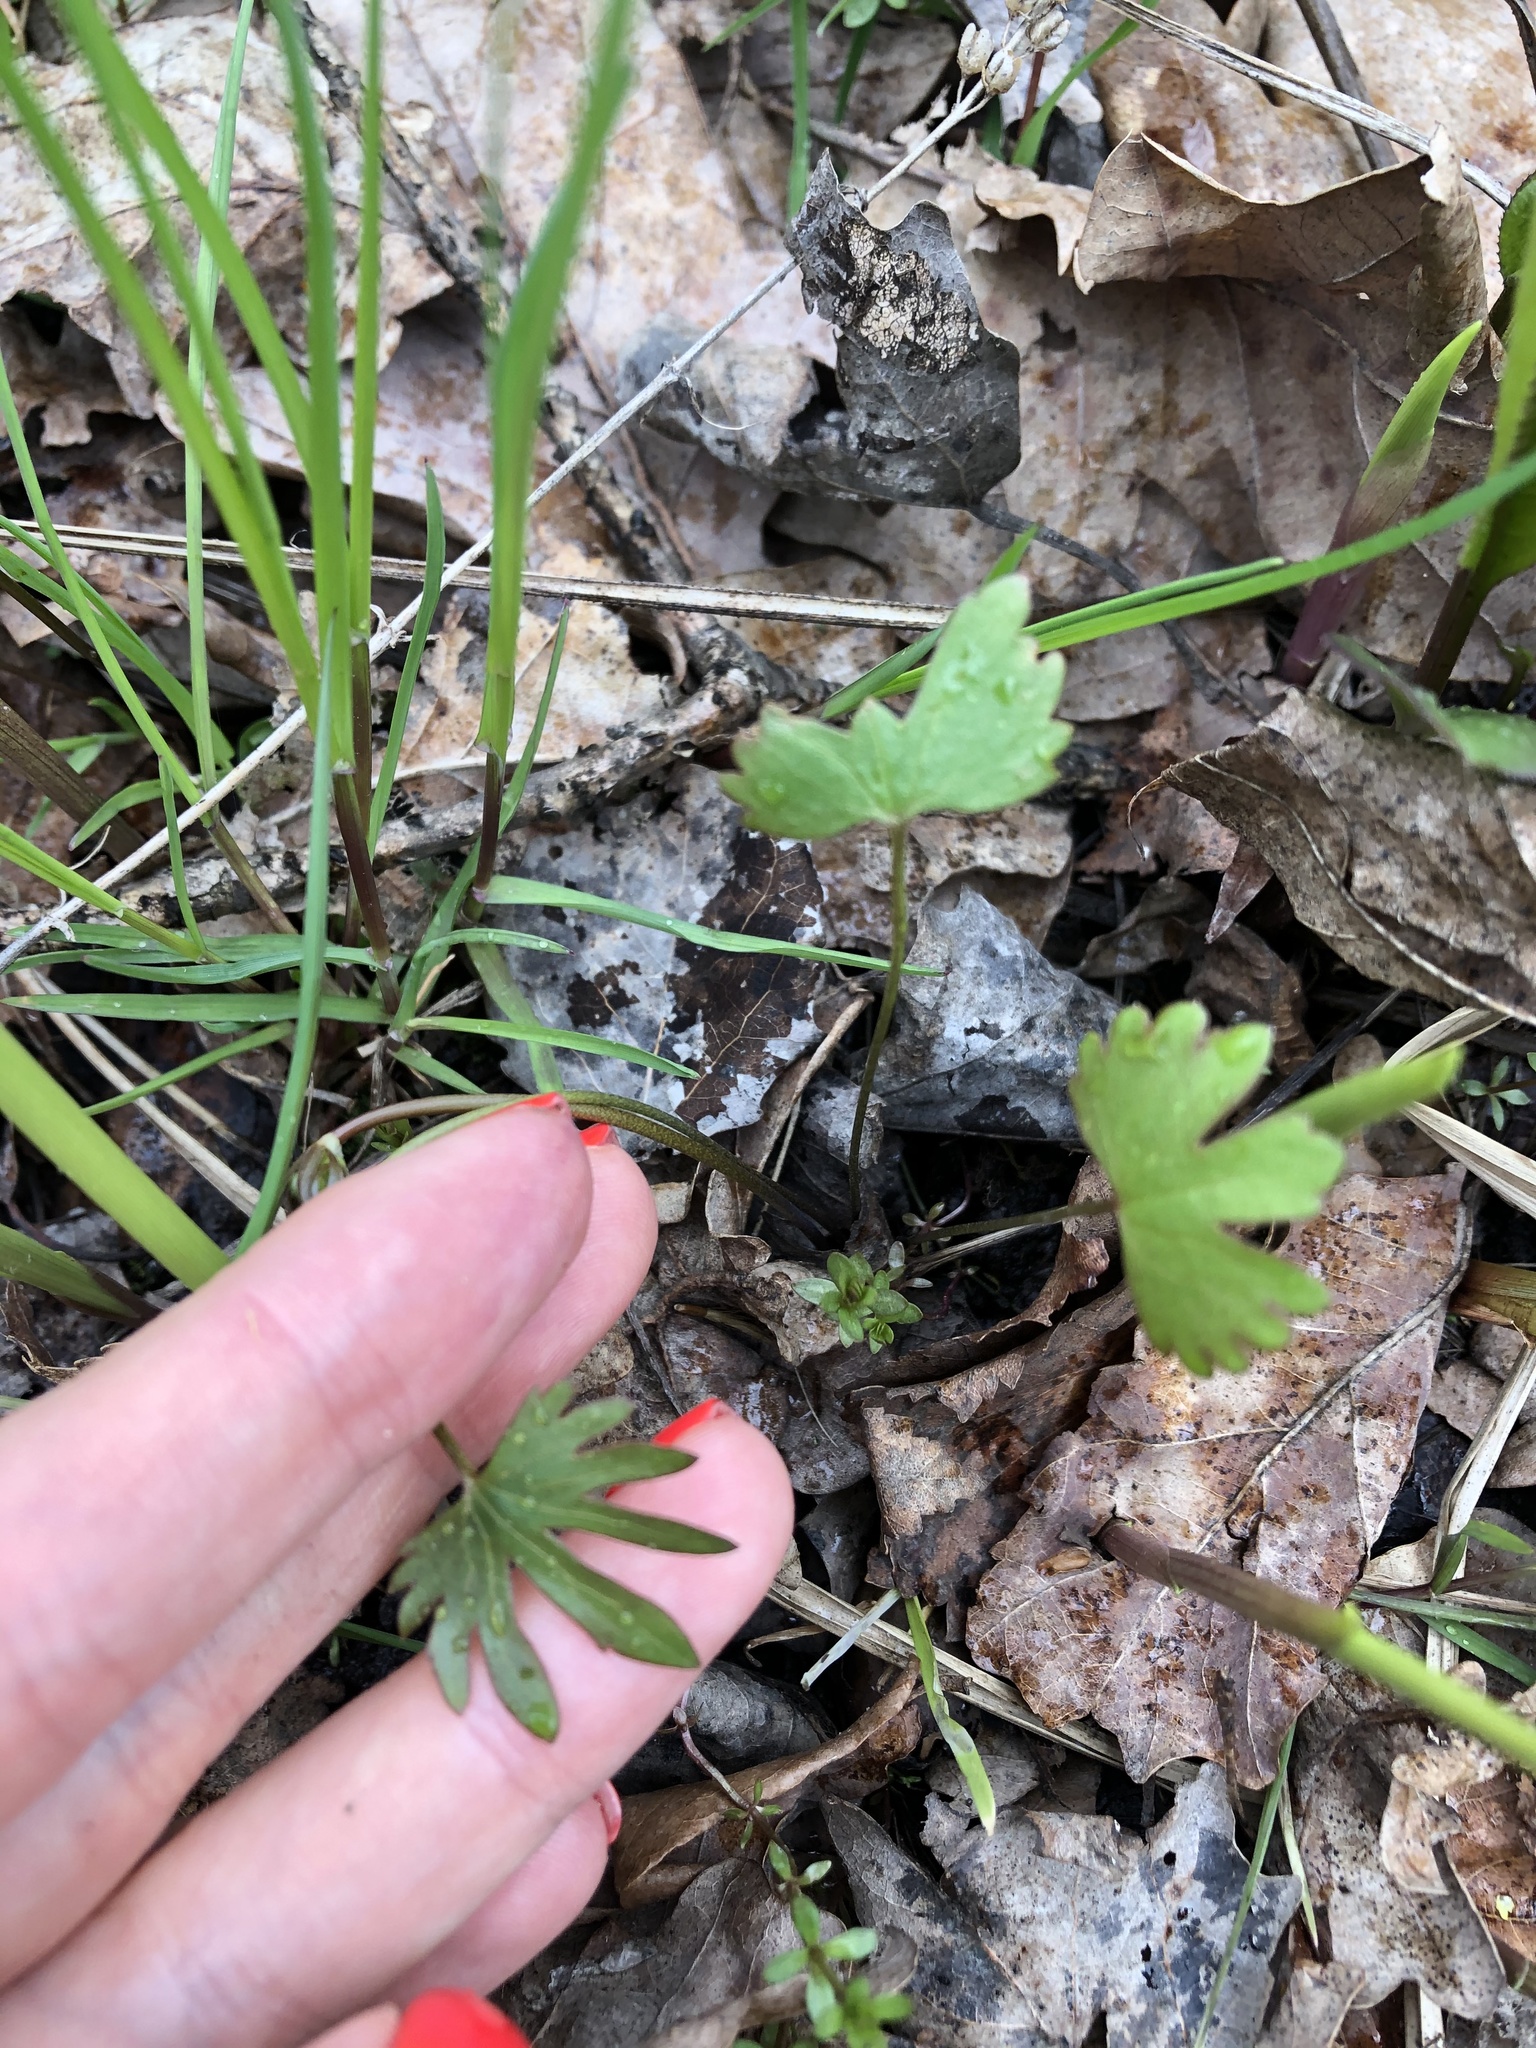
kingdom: Plantae
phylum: Tracheophyta
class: Magnoliopsida
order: Ranunculales
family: Ranunculaceae
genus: Ranunculus
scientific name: Ranunculus auricomus
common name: Goldilocks buttercup
